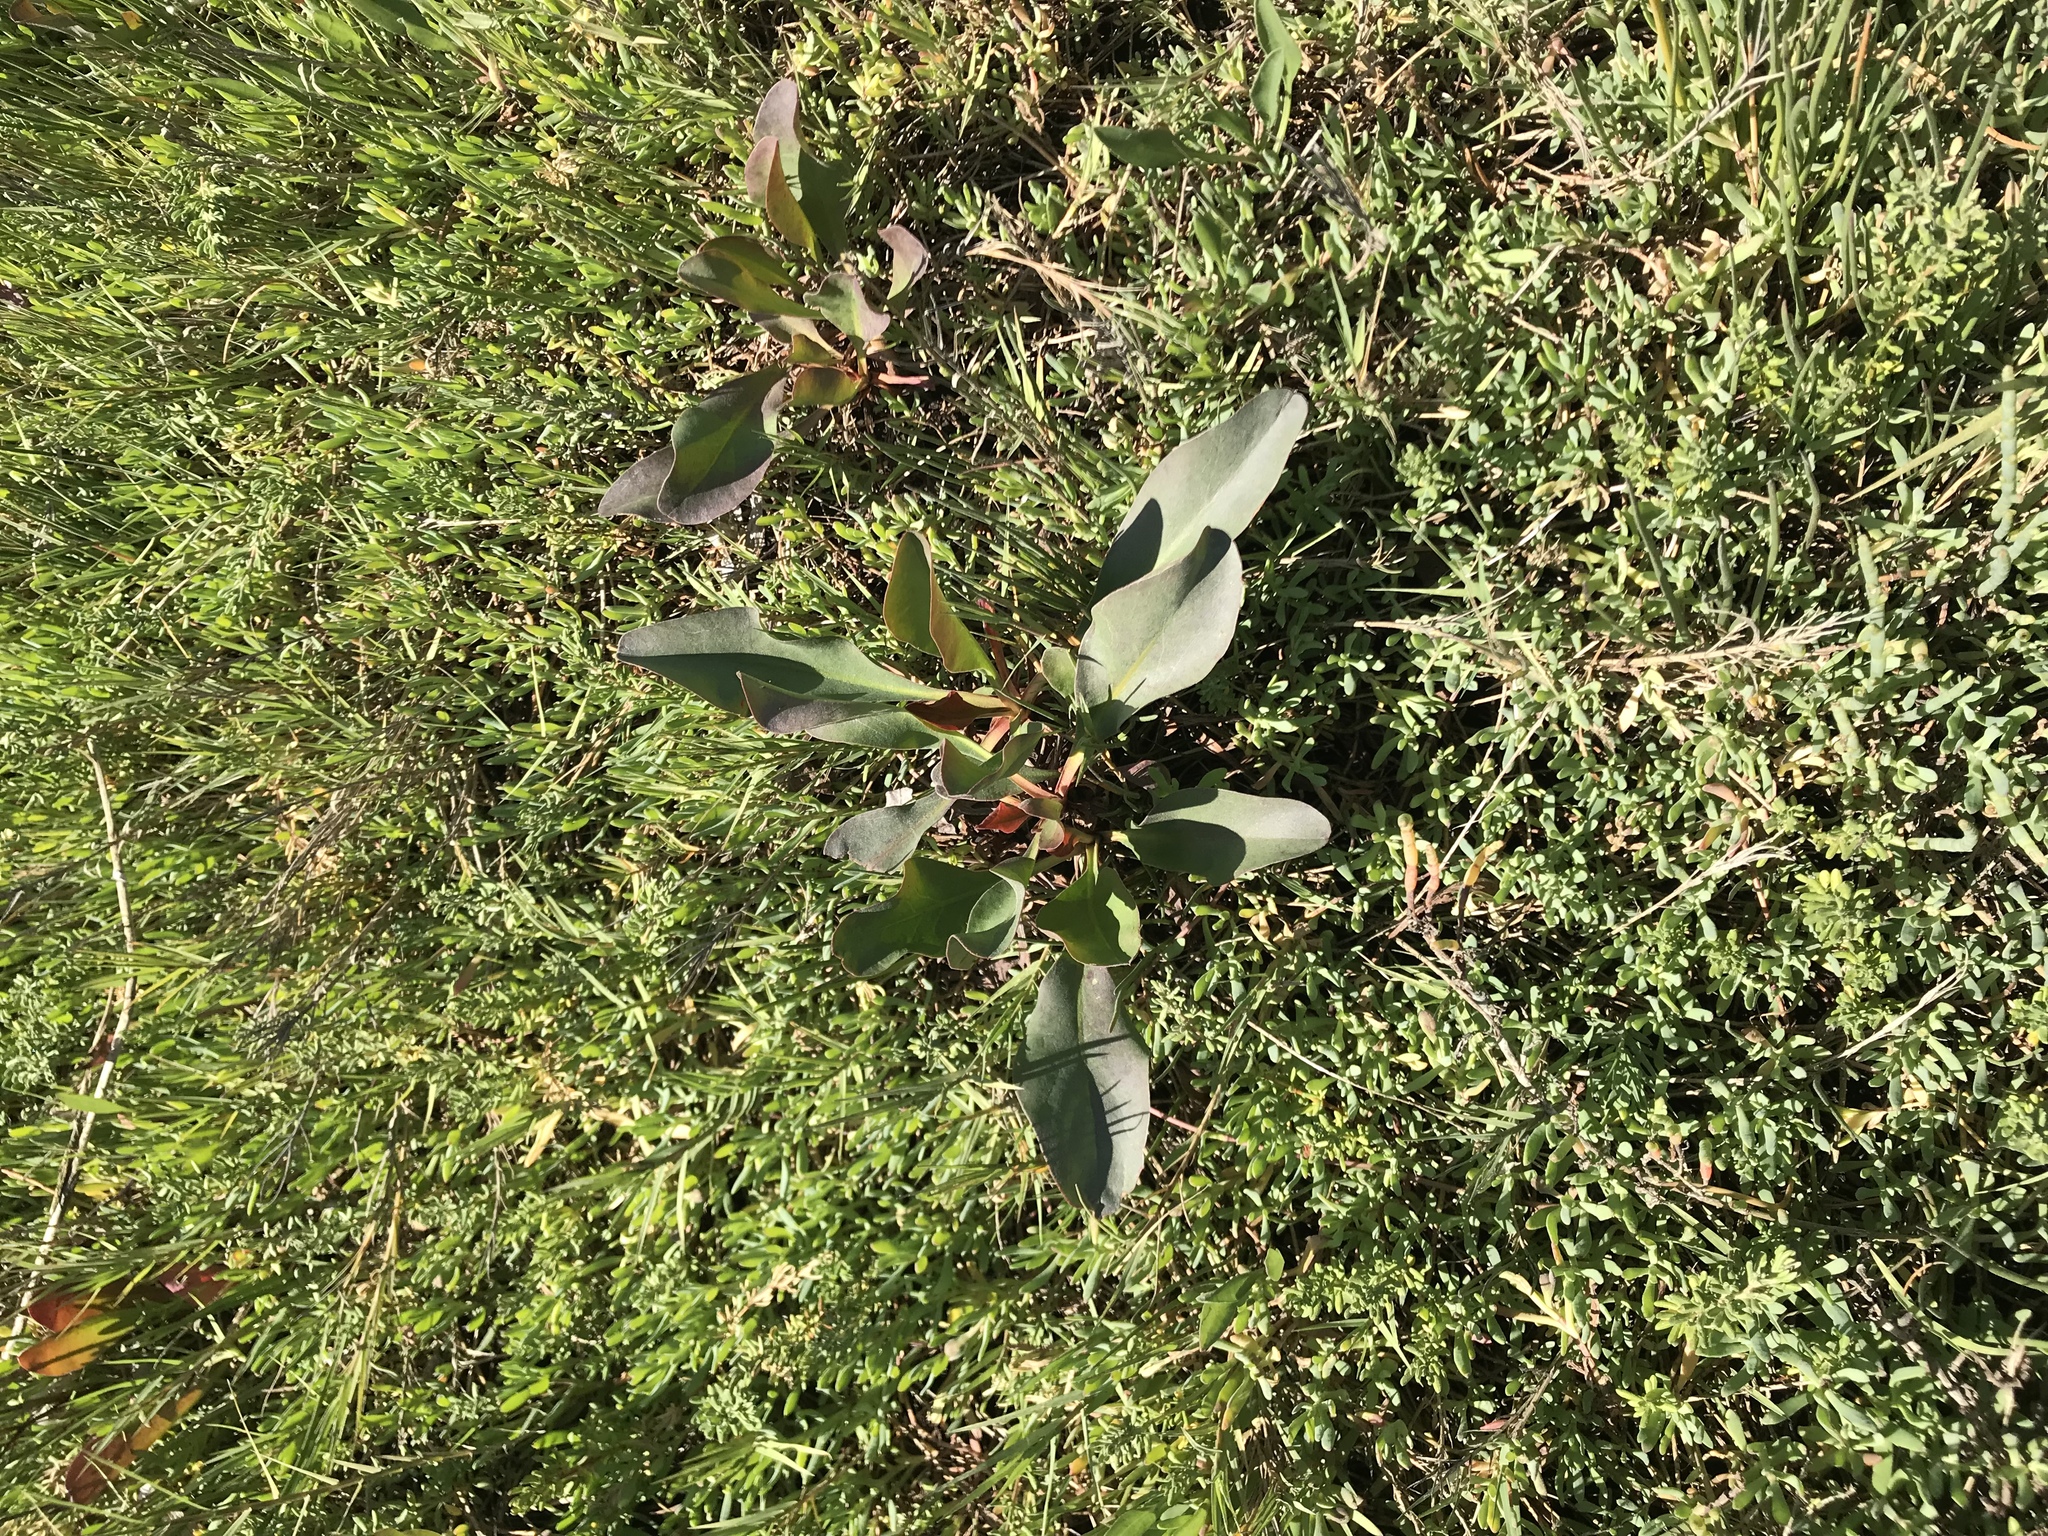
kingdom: Plantae
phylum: Tracheophyta
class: Magnoliopsida
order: Caryophyllales
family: Plumbaginaceae
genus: Limonium
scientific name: Limonium californicum
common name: Marsh-rosemary
